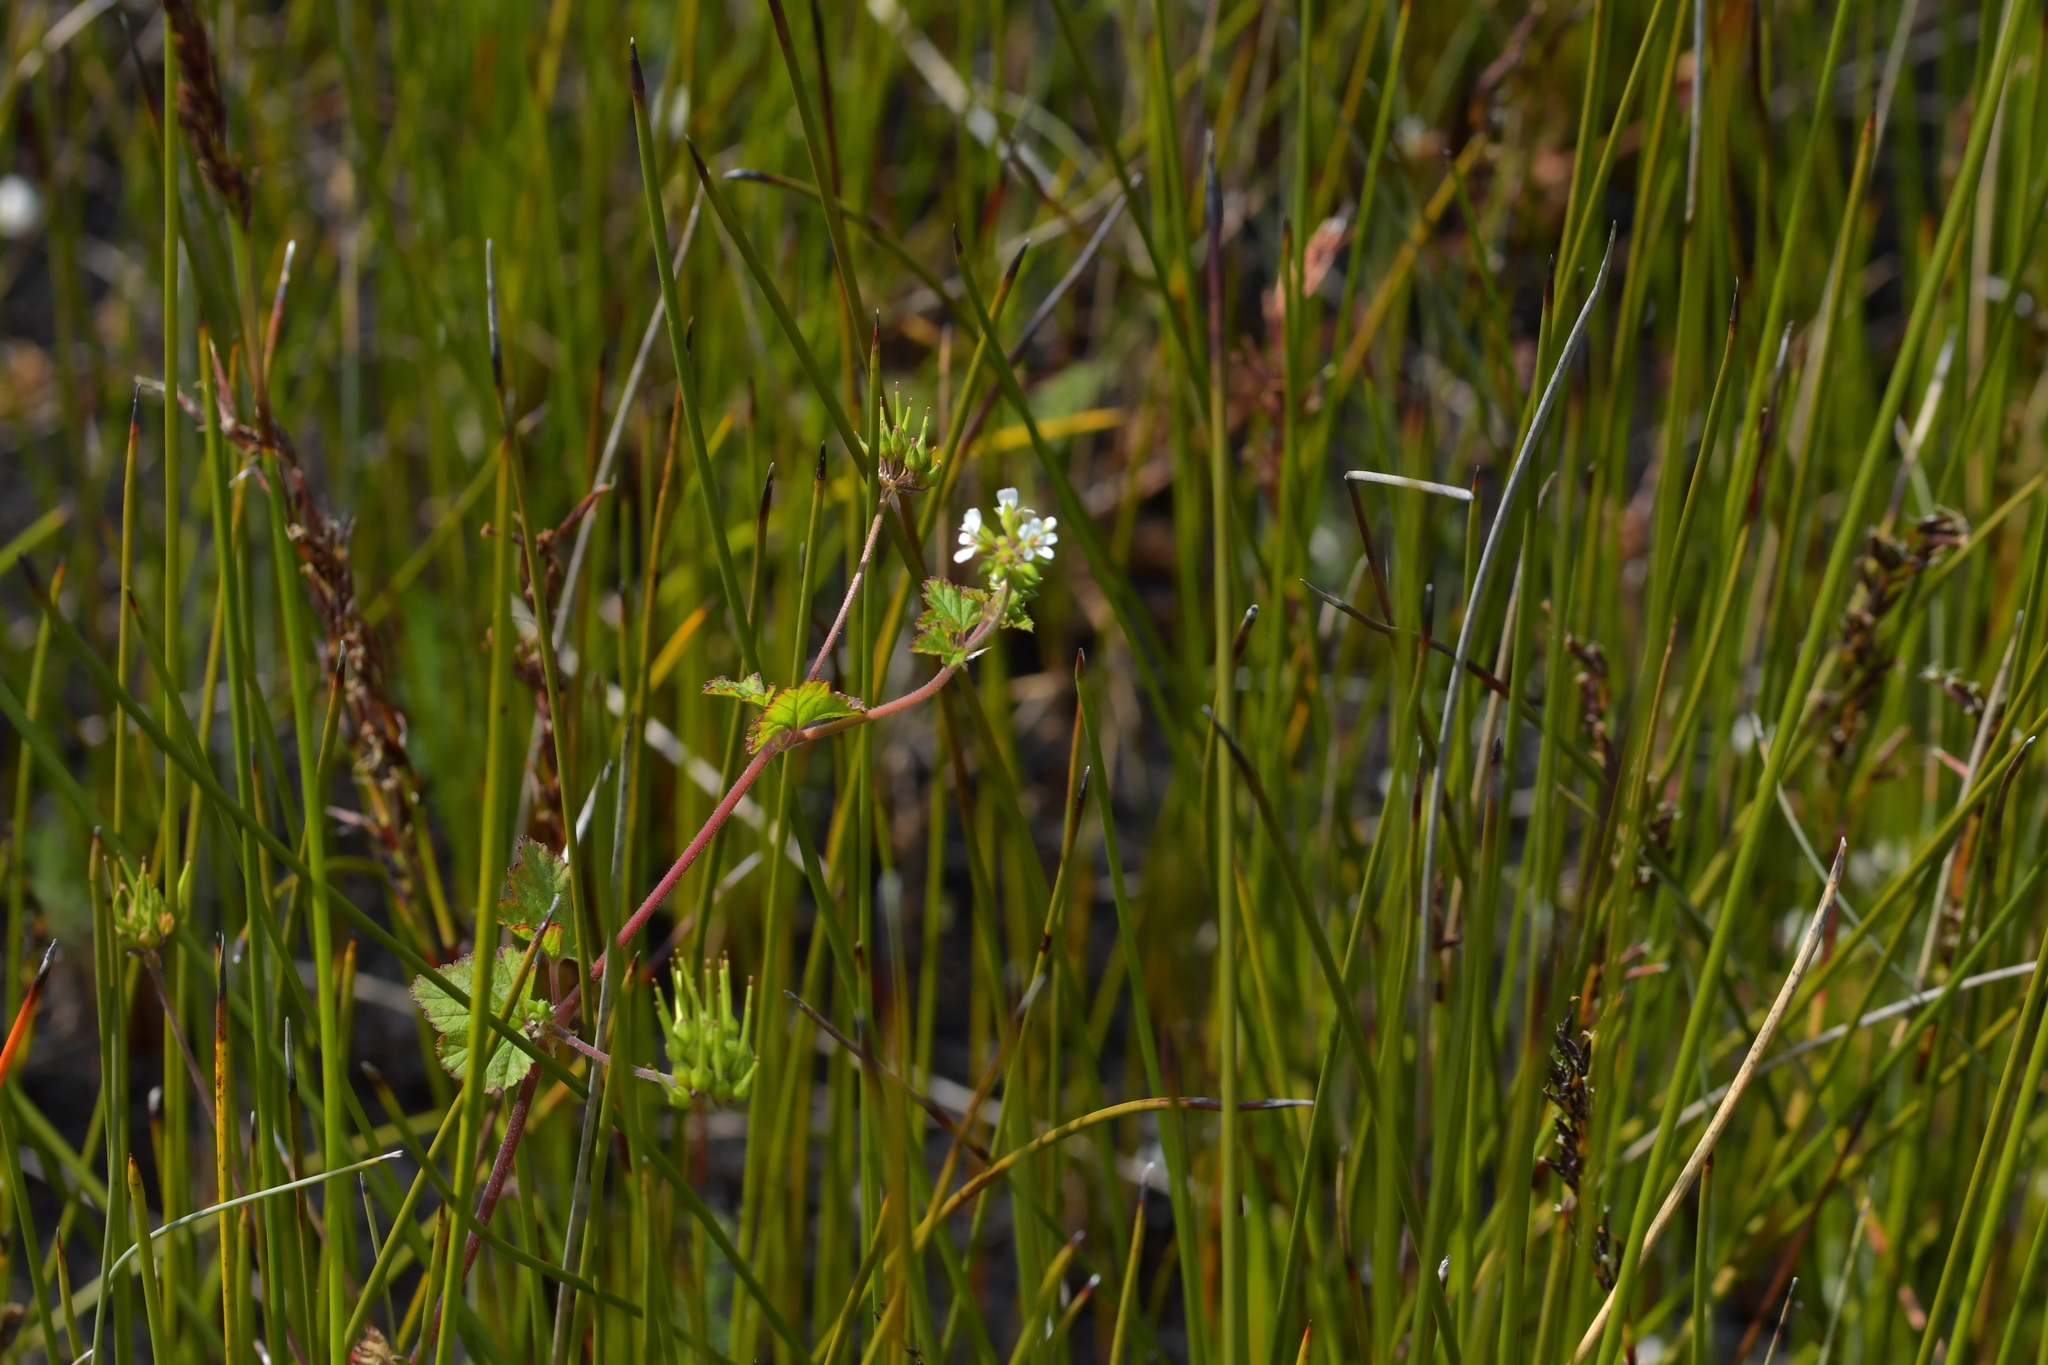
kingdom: Plantae
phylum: Tracheophyta
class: Magnoliopsida
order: Geraniales
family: Geraniaceae
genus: Pelargonium
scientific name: Pelargonium inodorum
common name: Kopata geranium
